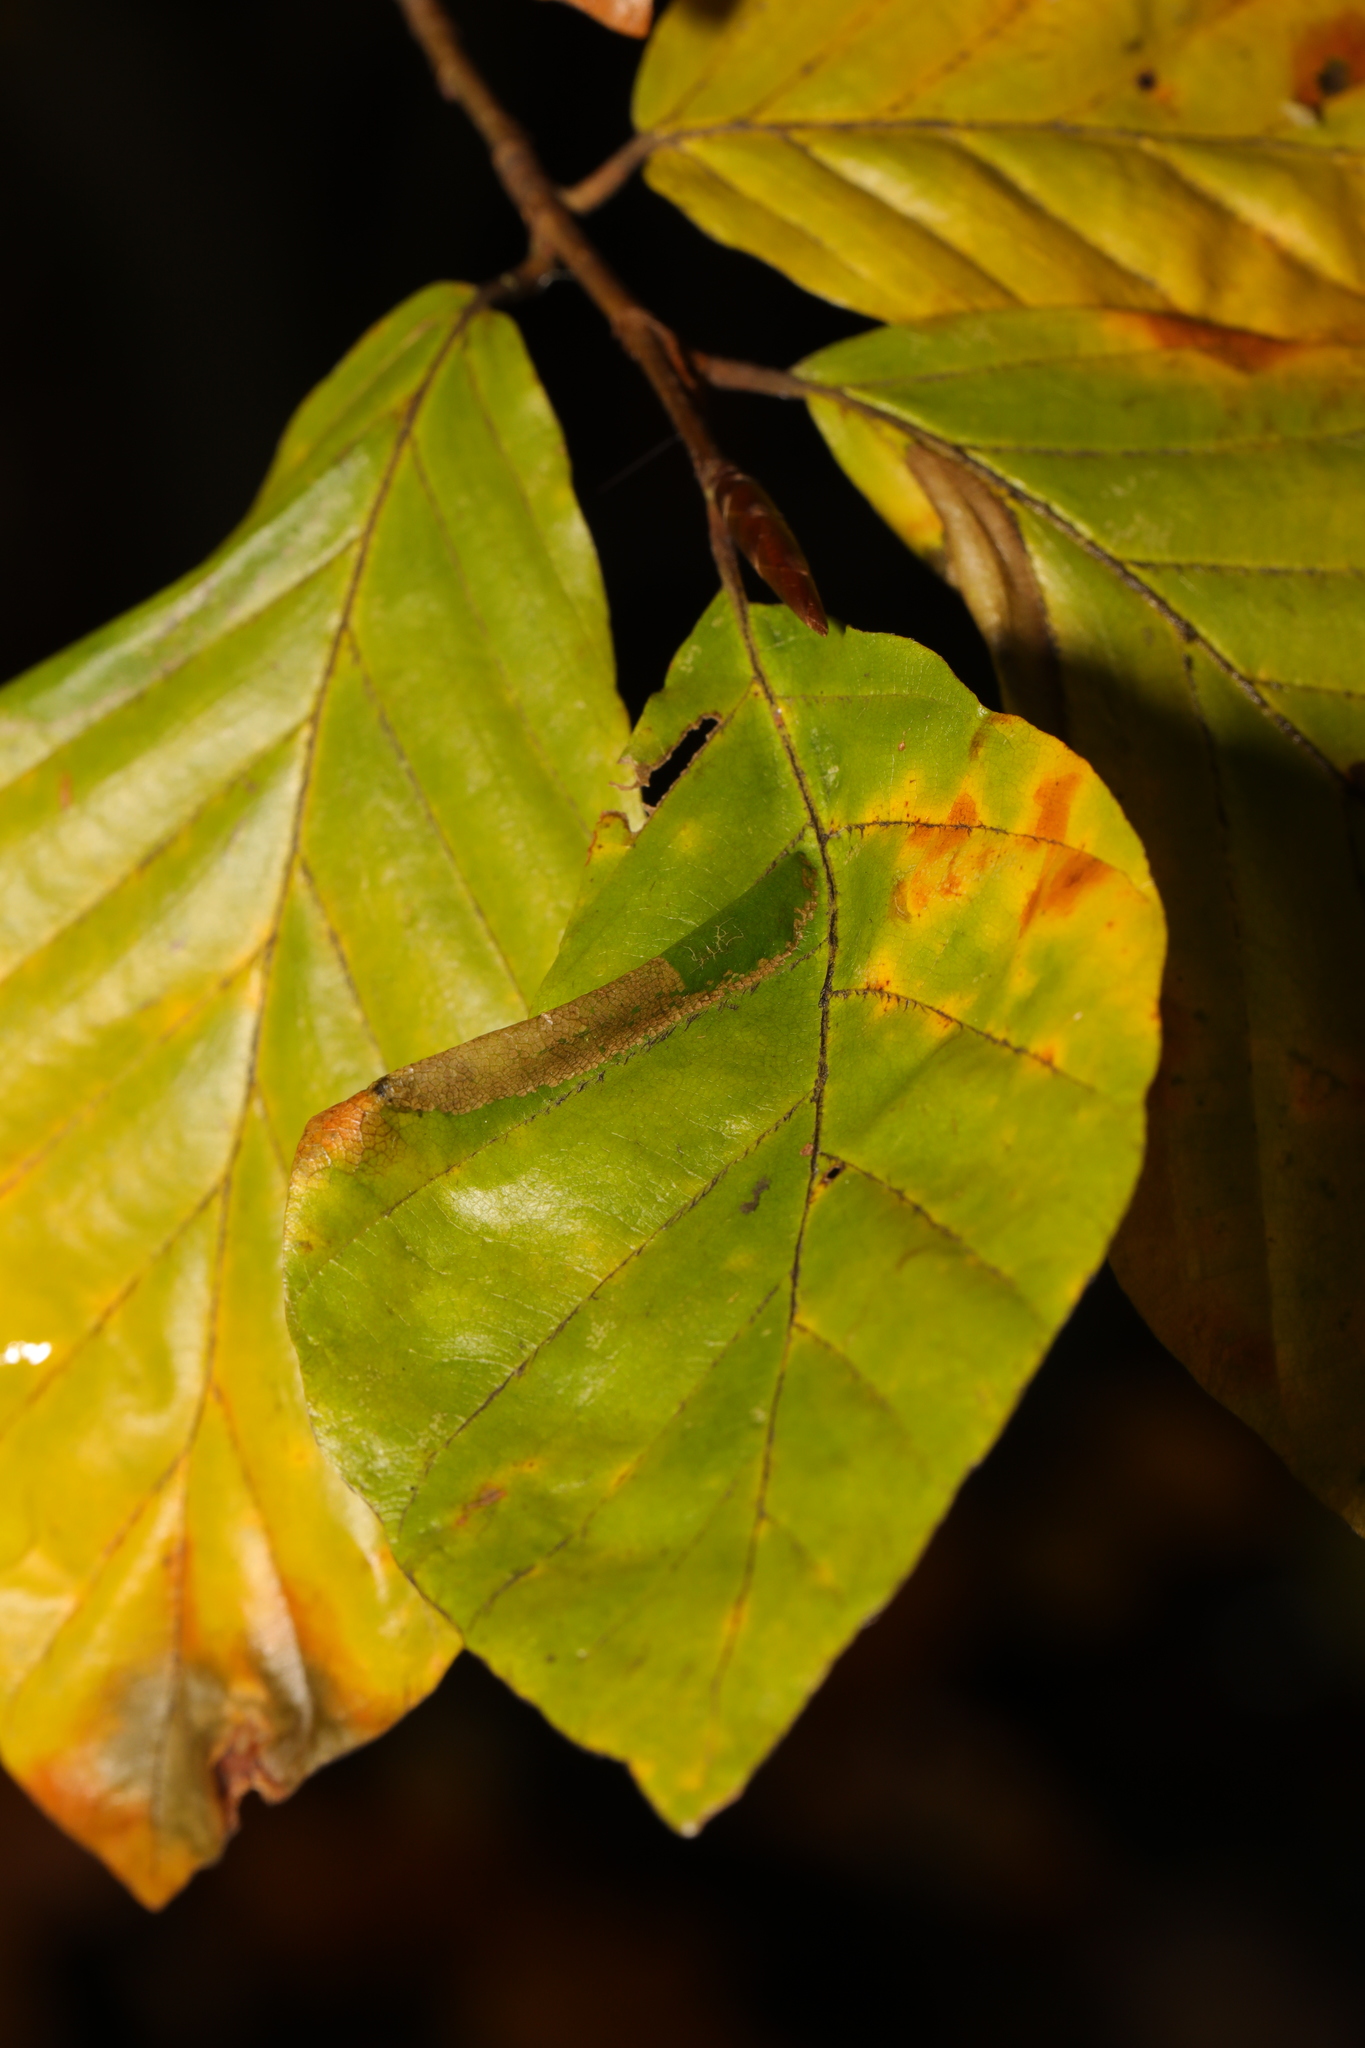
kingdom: Animalia
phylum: Arthropoda
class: Insecta
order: Lepidoptera
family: Gracillariidae
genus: Phyllonorycter
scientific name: Phyllonorycter maestingella
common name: Beech midget
